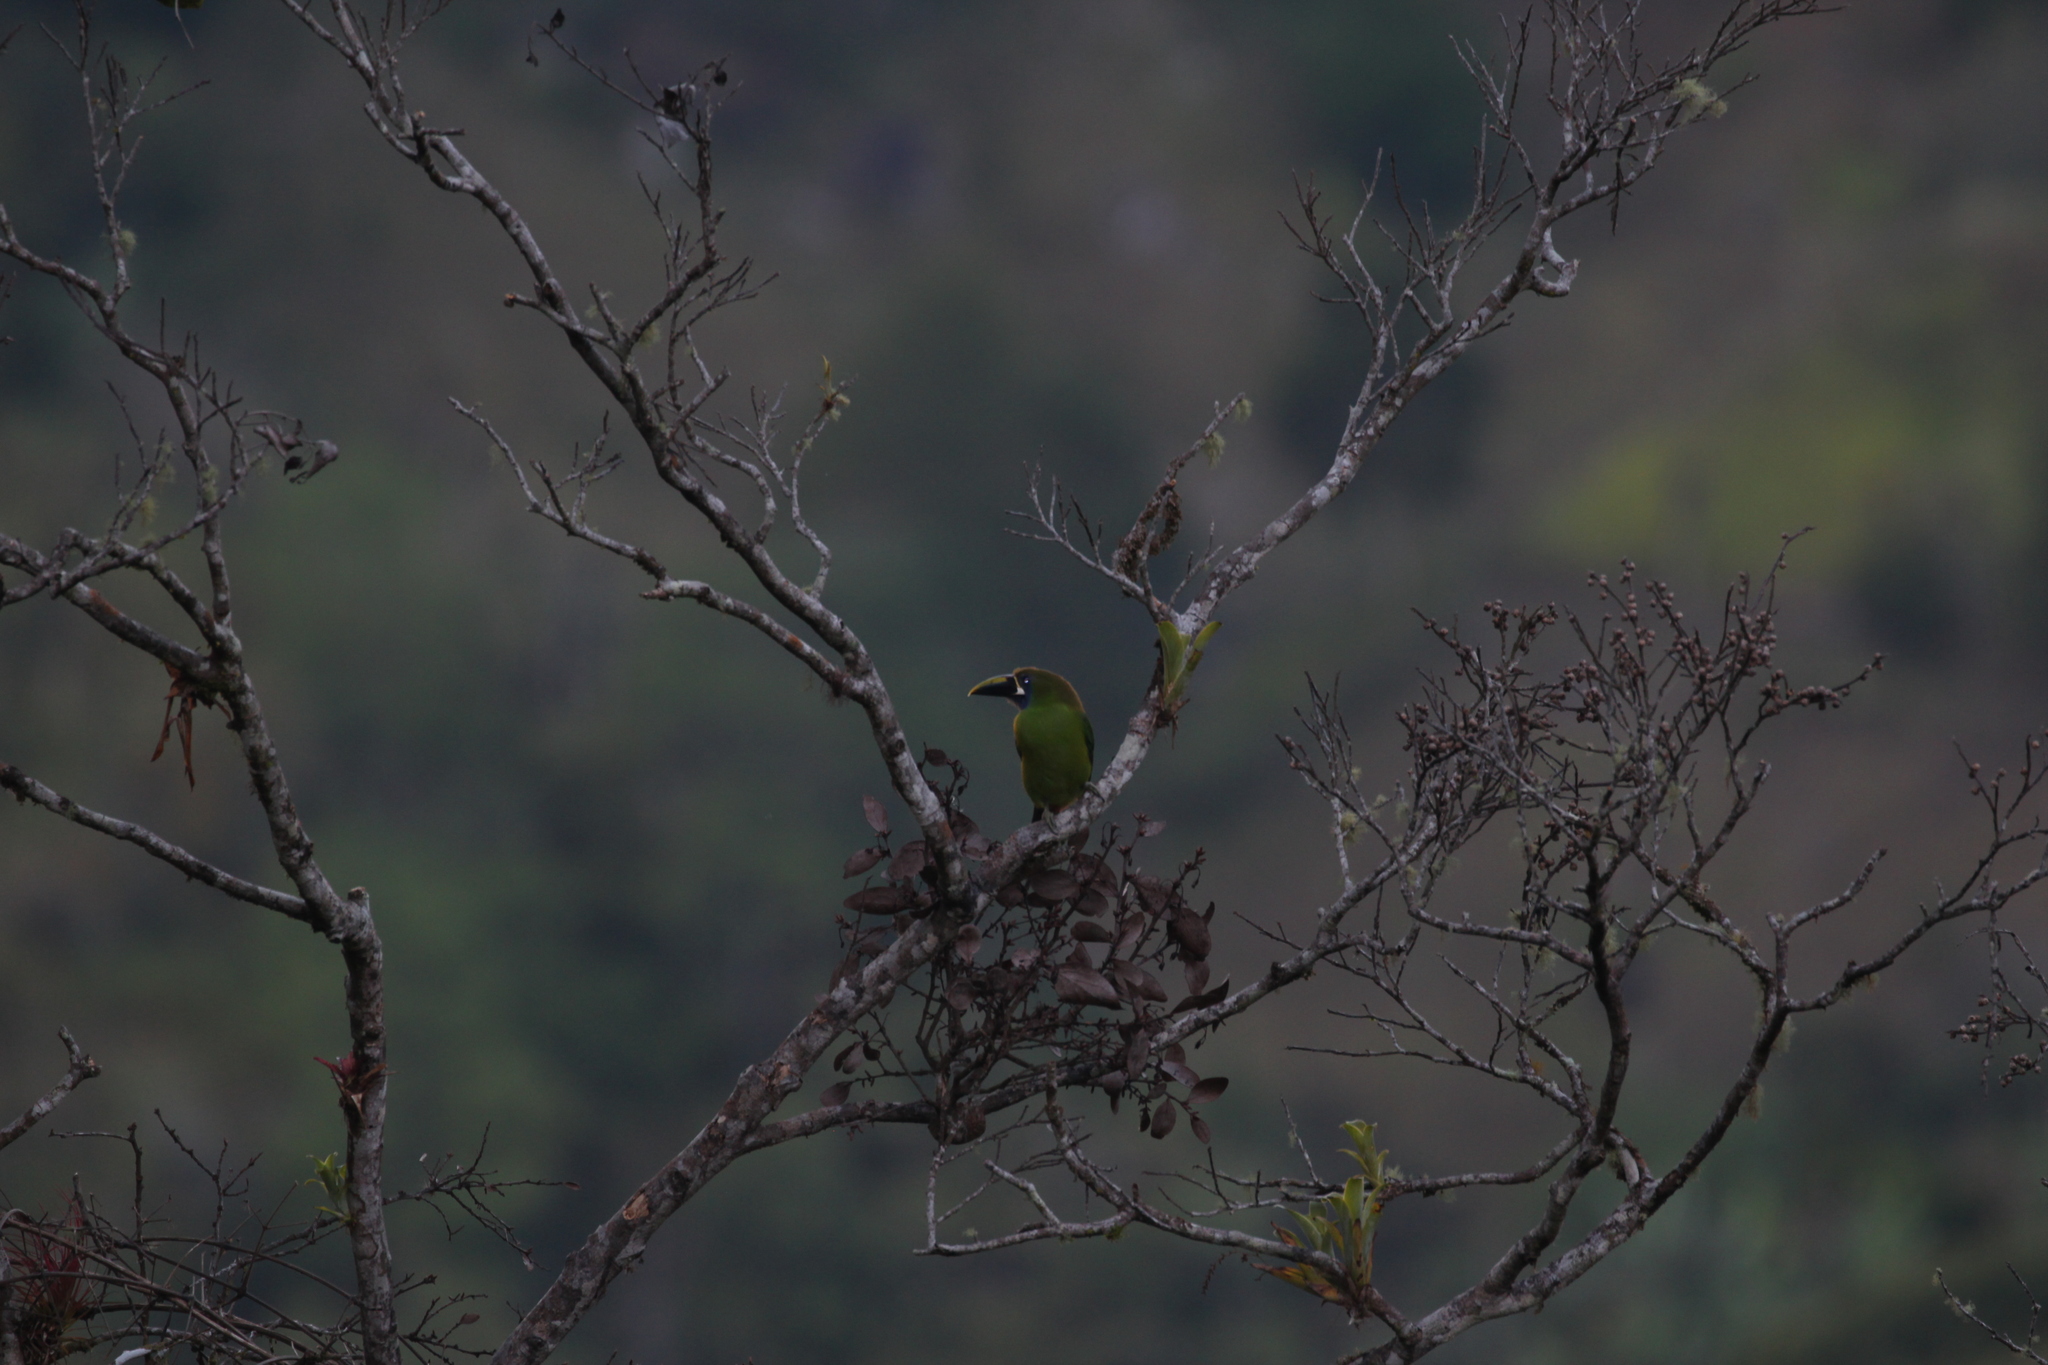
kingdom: Animalia
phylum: Chordata
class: Aves
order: Piciformes
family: Ramphastidae
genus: Aulacorhynchus
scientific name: Aulacorhynchus prasinus
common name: Emerald toucanet
